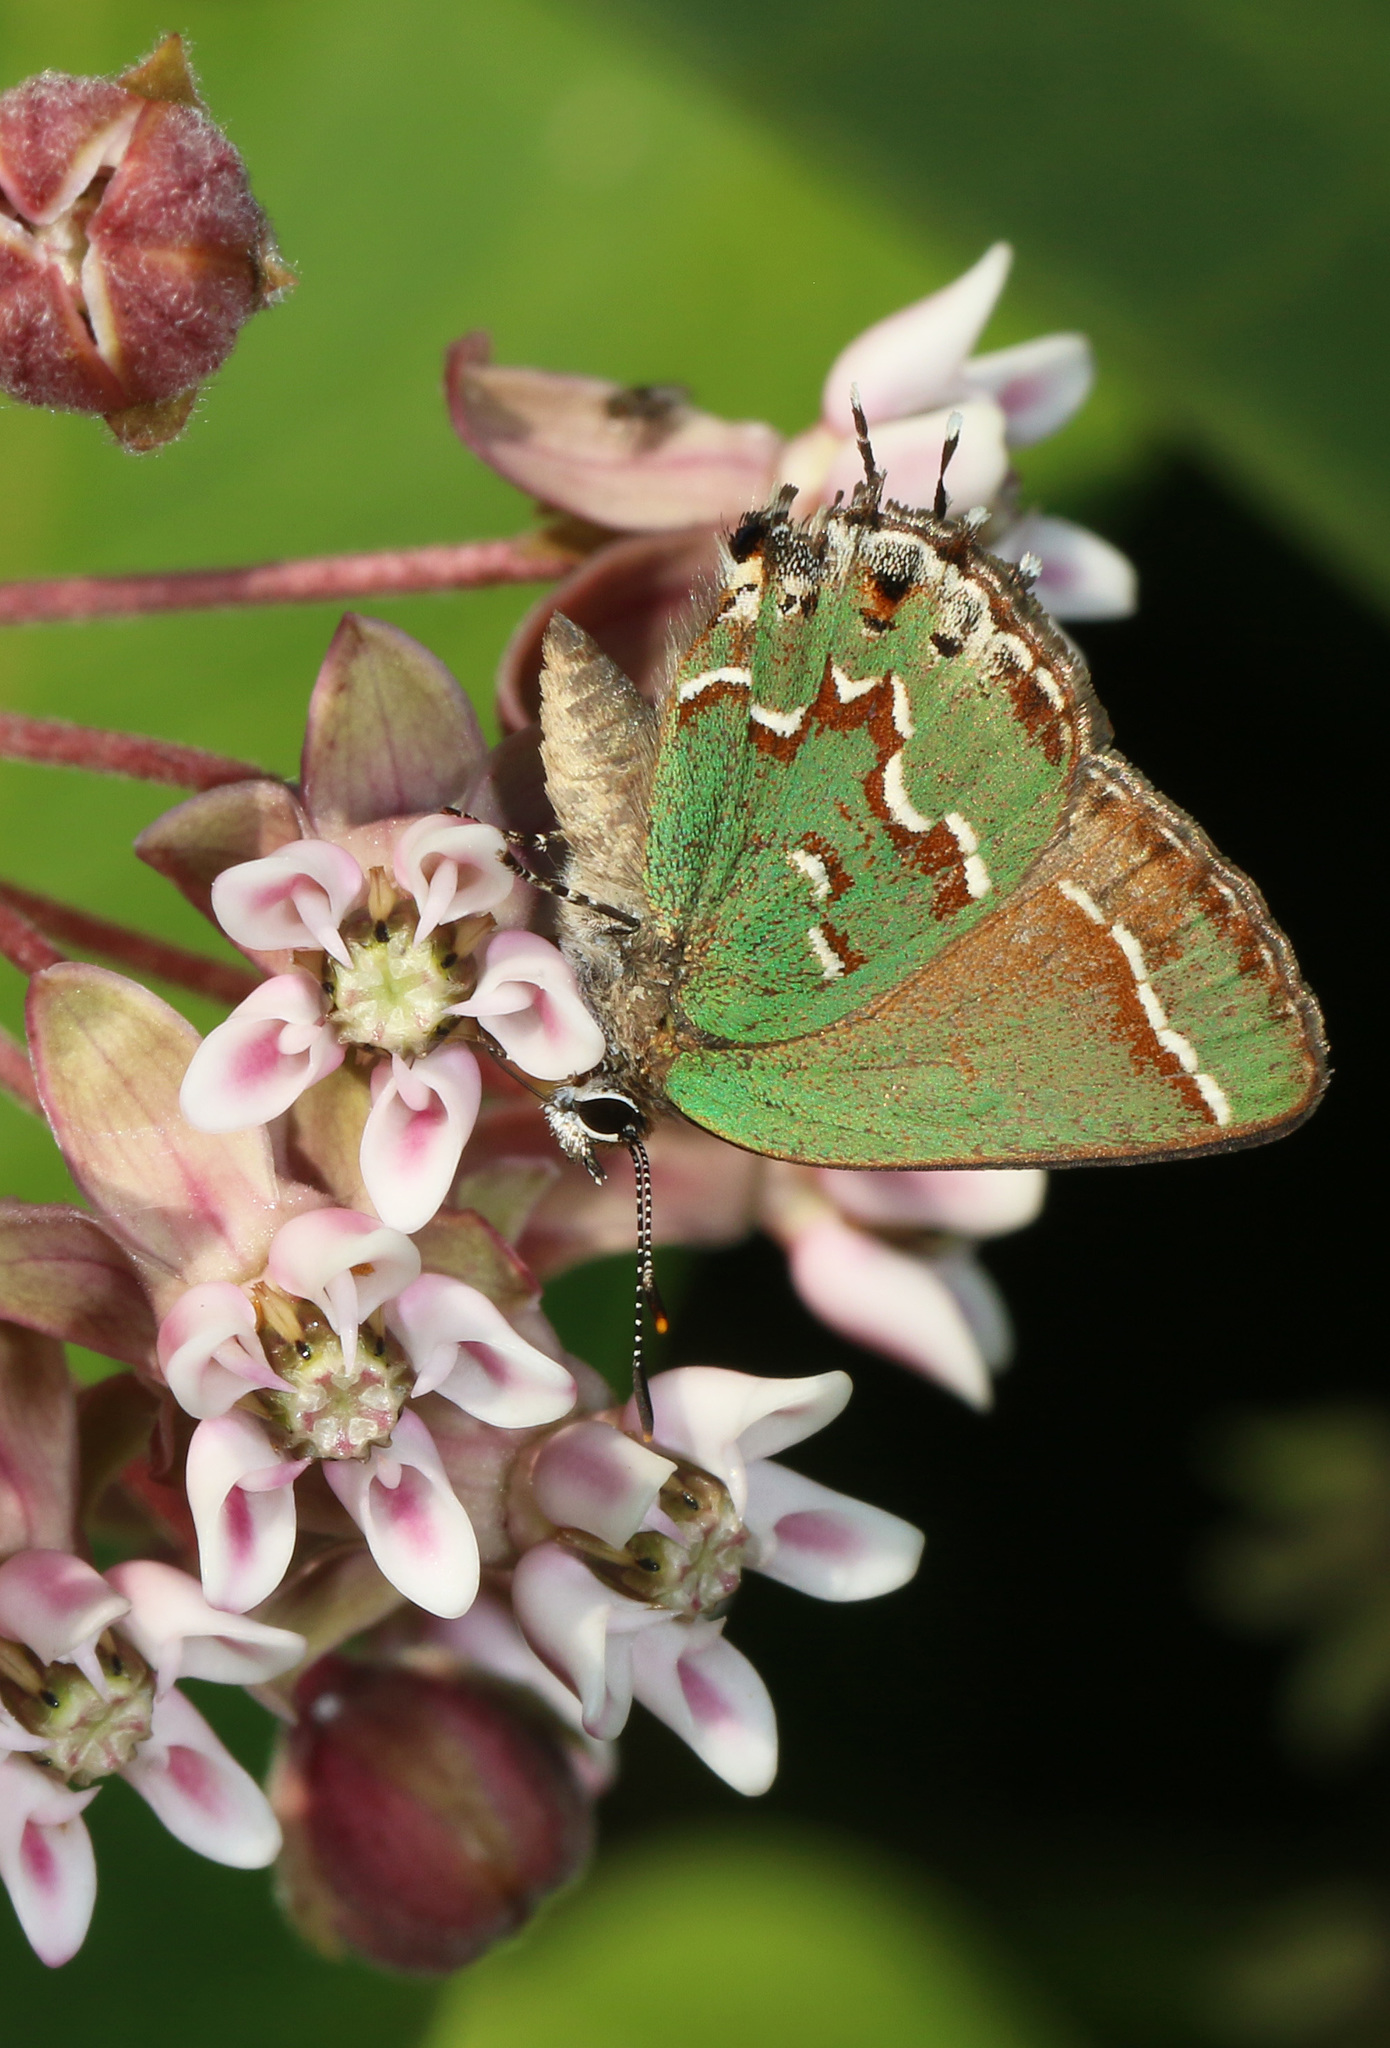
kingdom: Animalia
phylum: Arthropoda
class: Insecta
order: Lepidoptera
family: Lycaenidae
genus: Mitoura
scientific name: Mitoura gryneus
